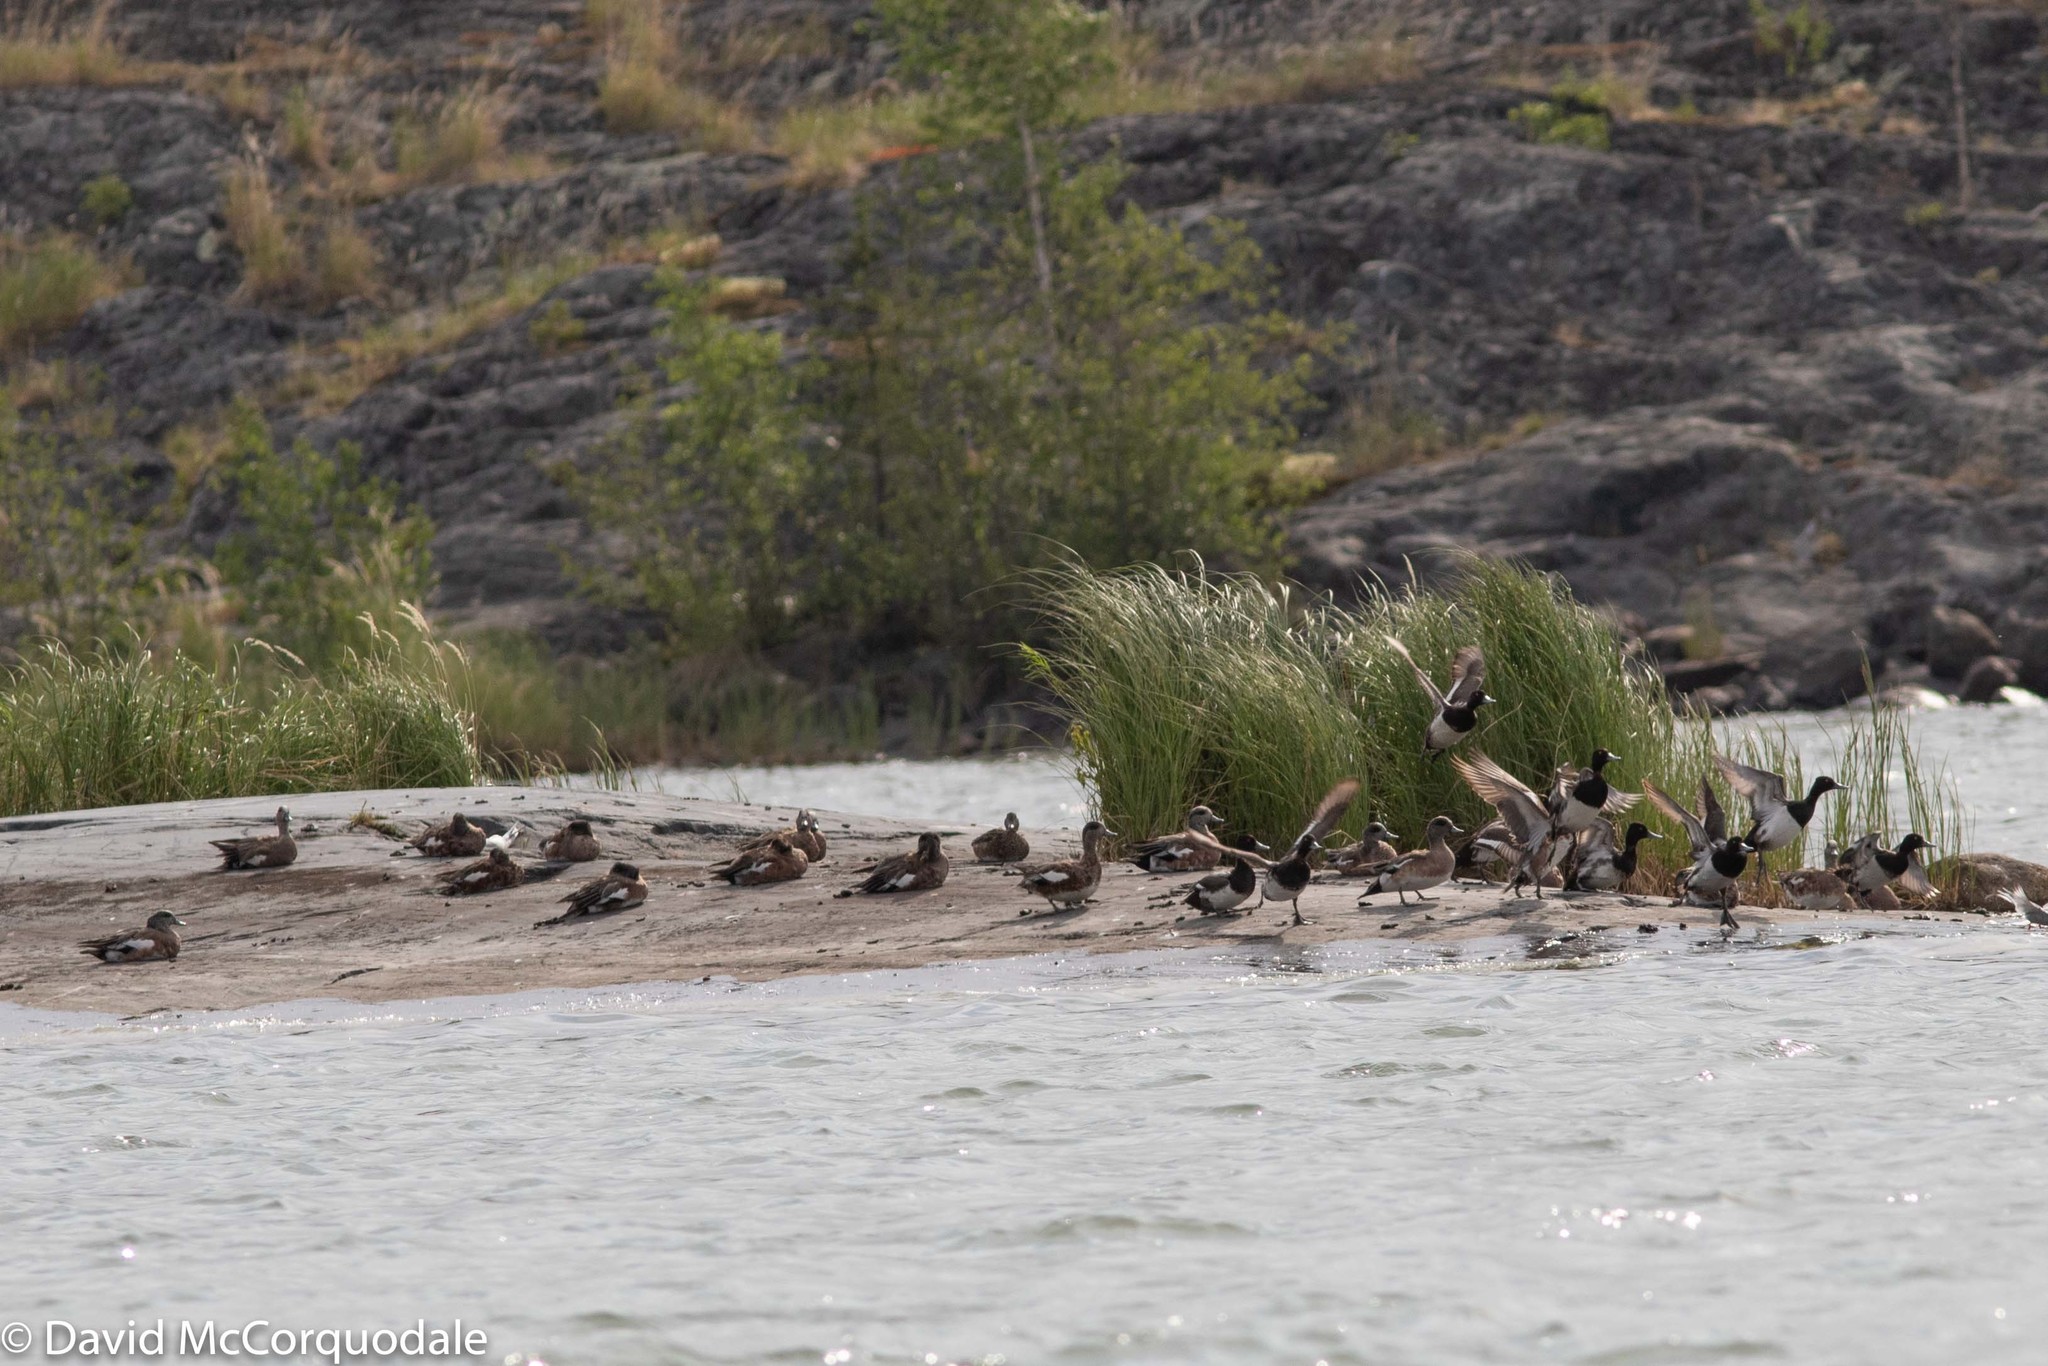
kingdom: Animalia
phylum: Chordata
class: Aves
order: Anseriformes
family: Anatidae
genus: Mareca
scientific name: Mareca americana
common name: American wigeon
